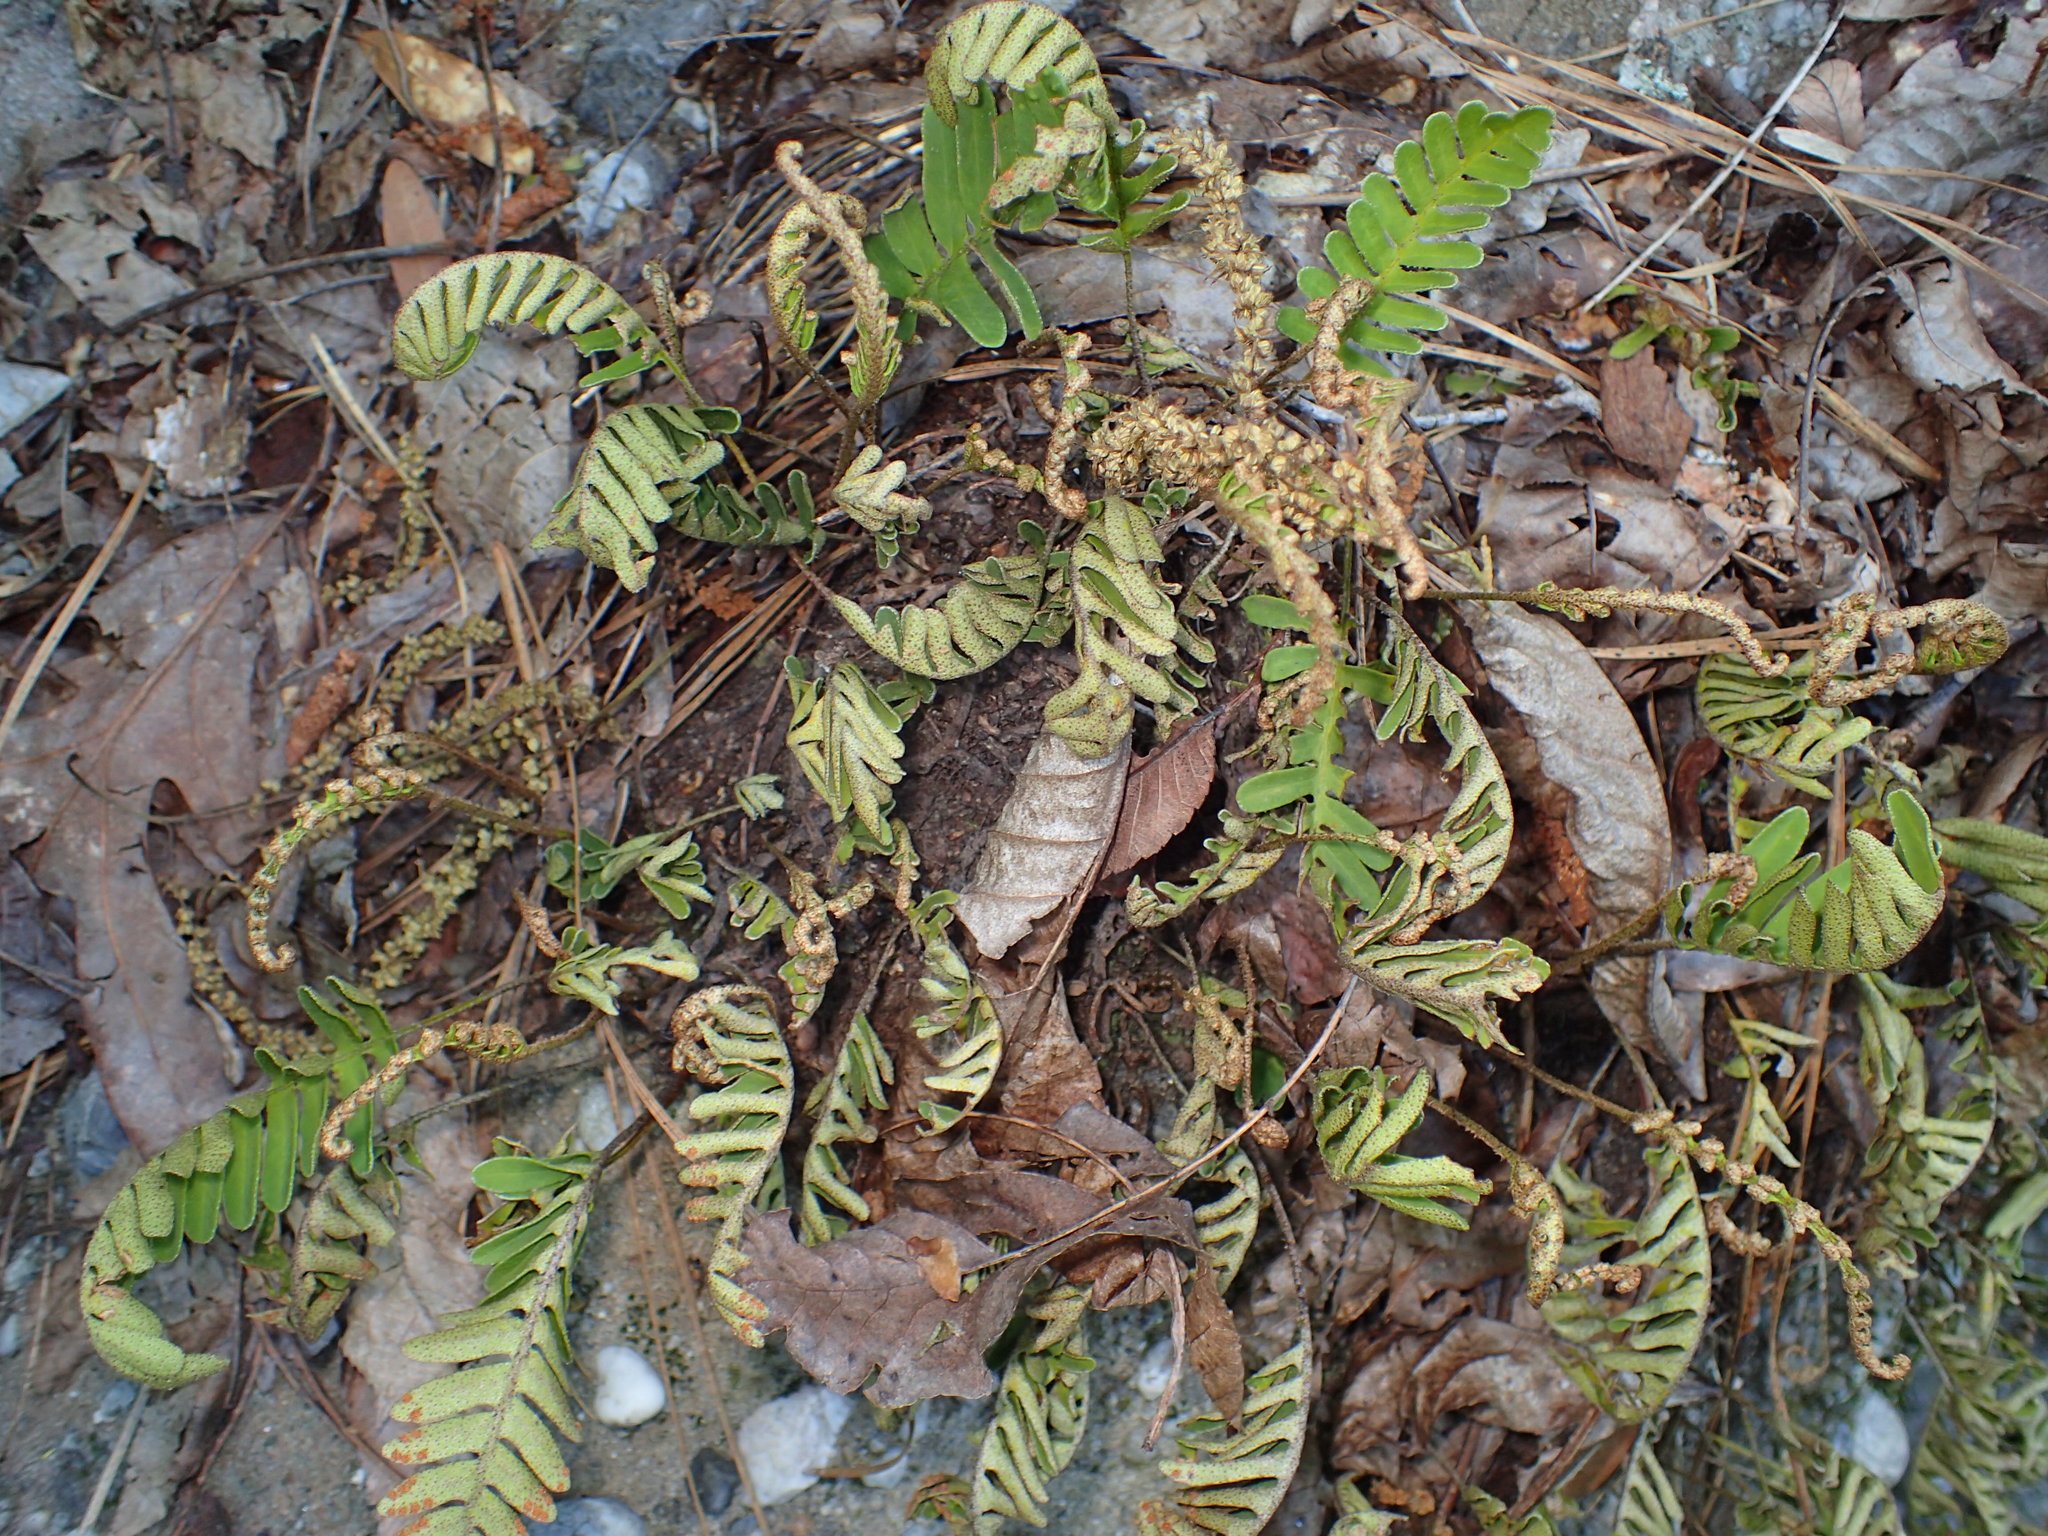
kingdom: Plantae
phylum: Tracheophyta
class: Polypodiopsida
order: Polypodiales
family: Polypodiaceae
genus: Pleopeltis
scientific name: Pleopeltis michauxiana
